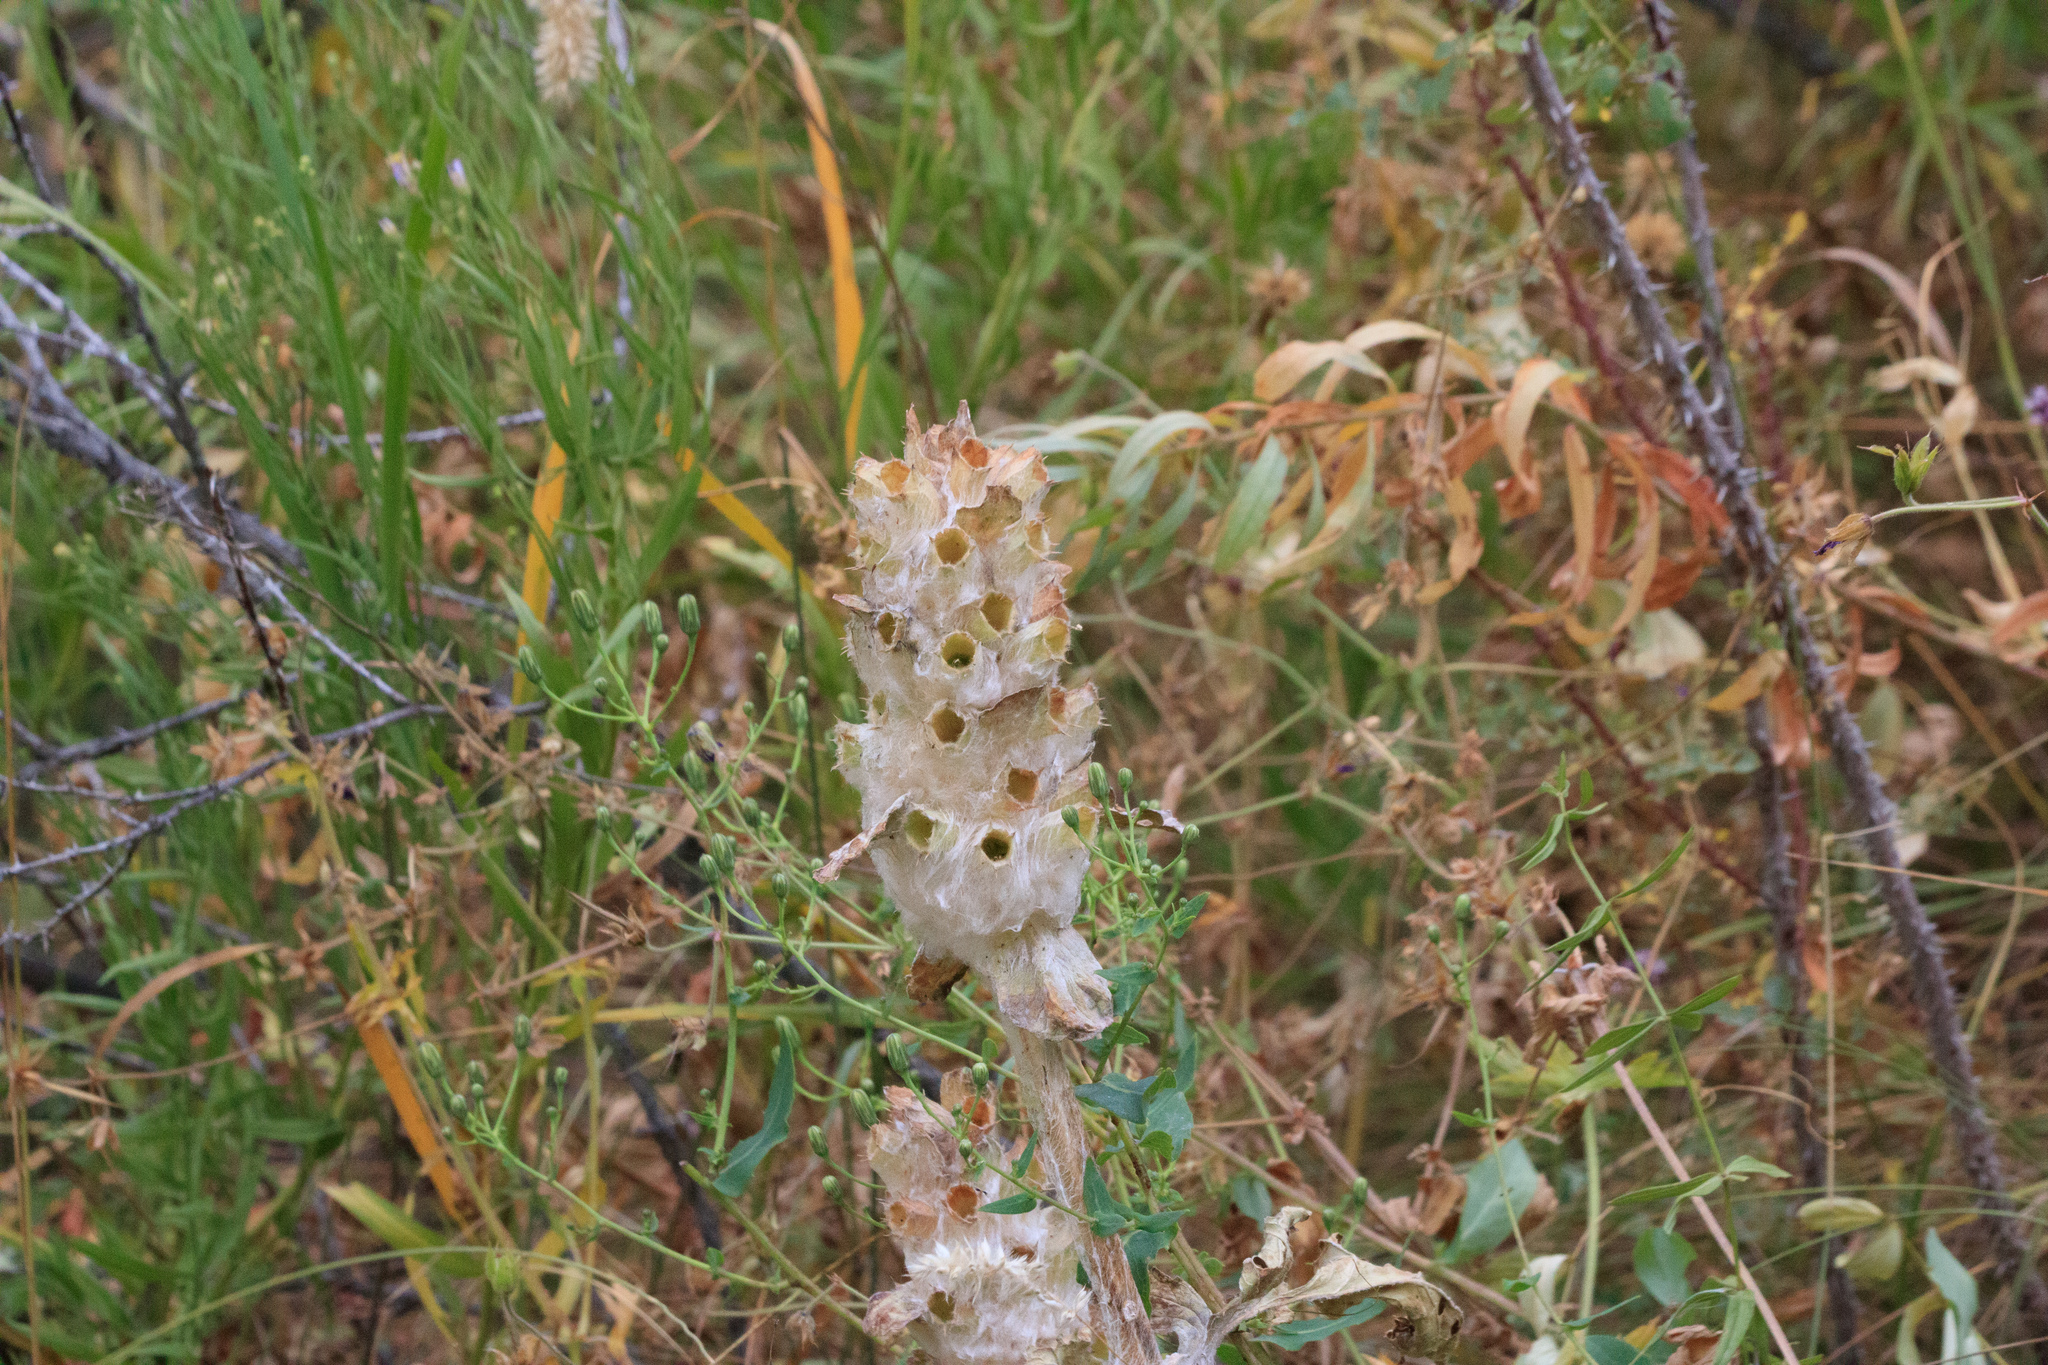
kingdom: Plantae
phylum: Tracheophyta
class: Magnoliopsida
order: Lamiales
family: Lamiaceae
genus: Phlomoides
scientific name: Phlomoides speciosa
